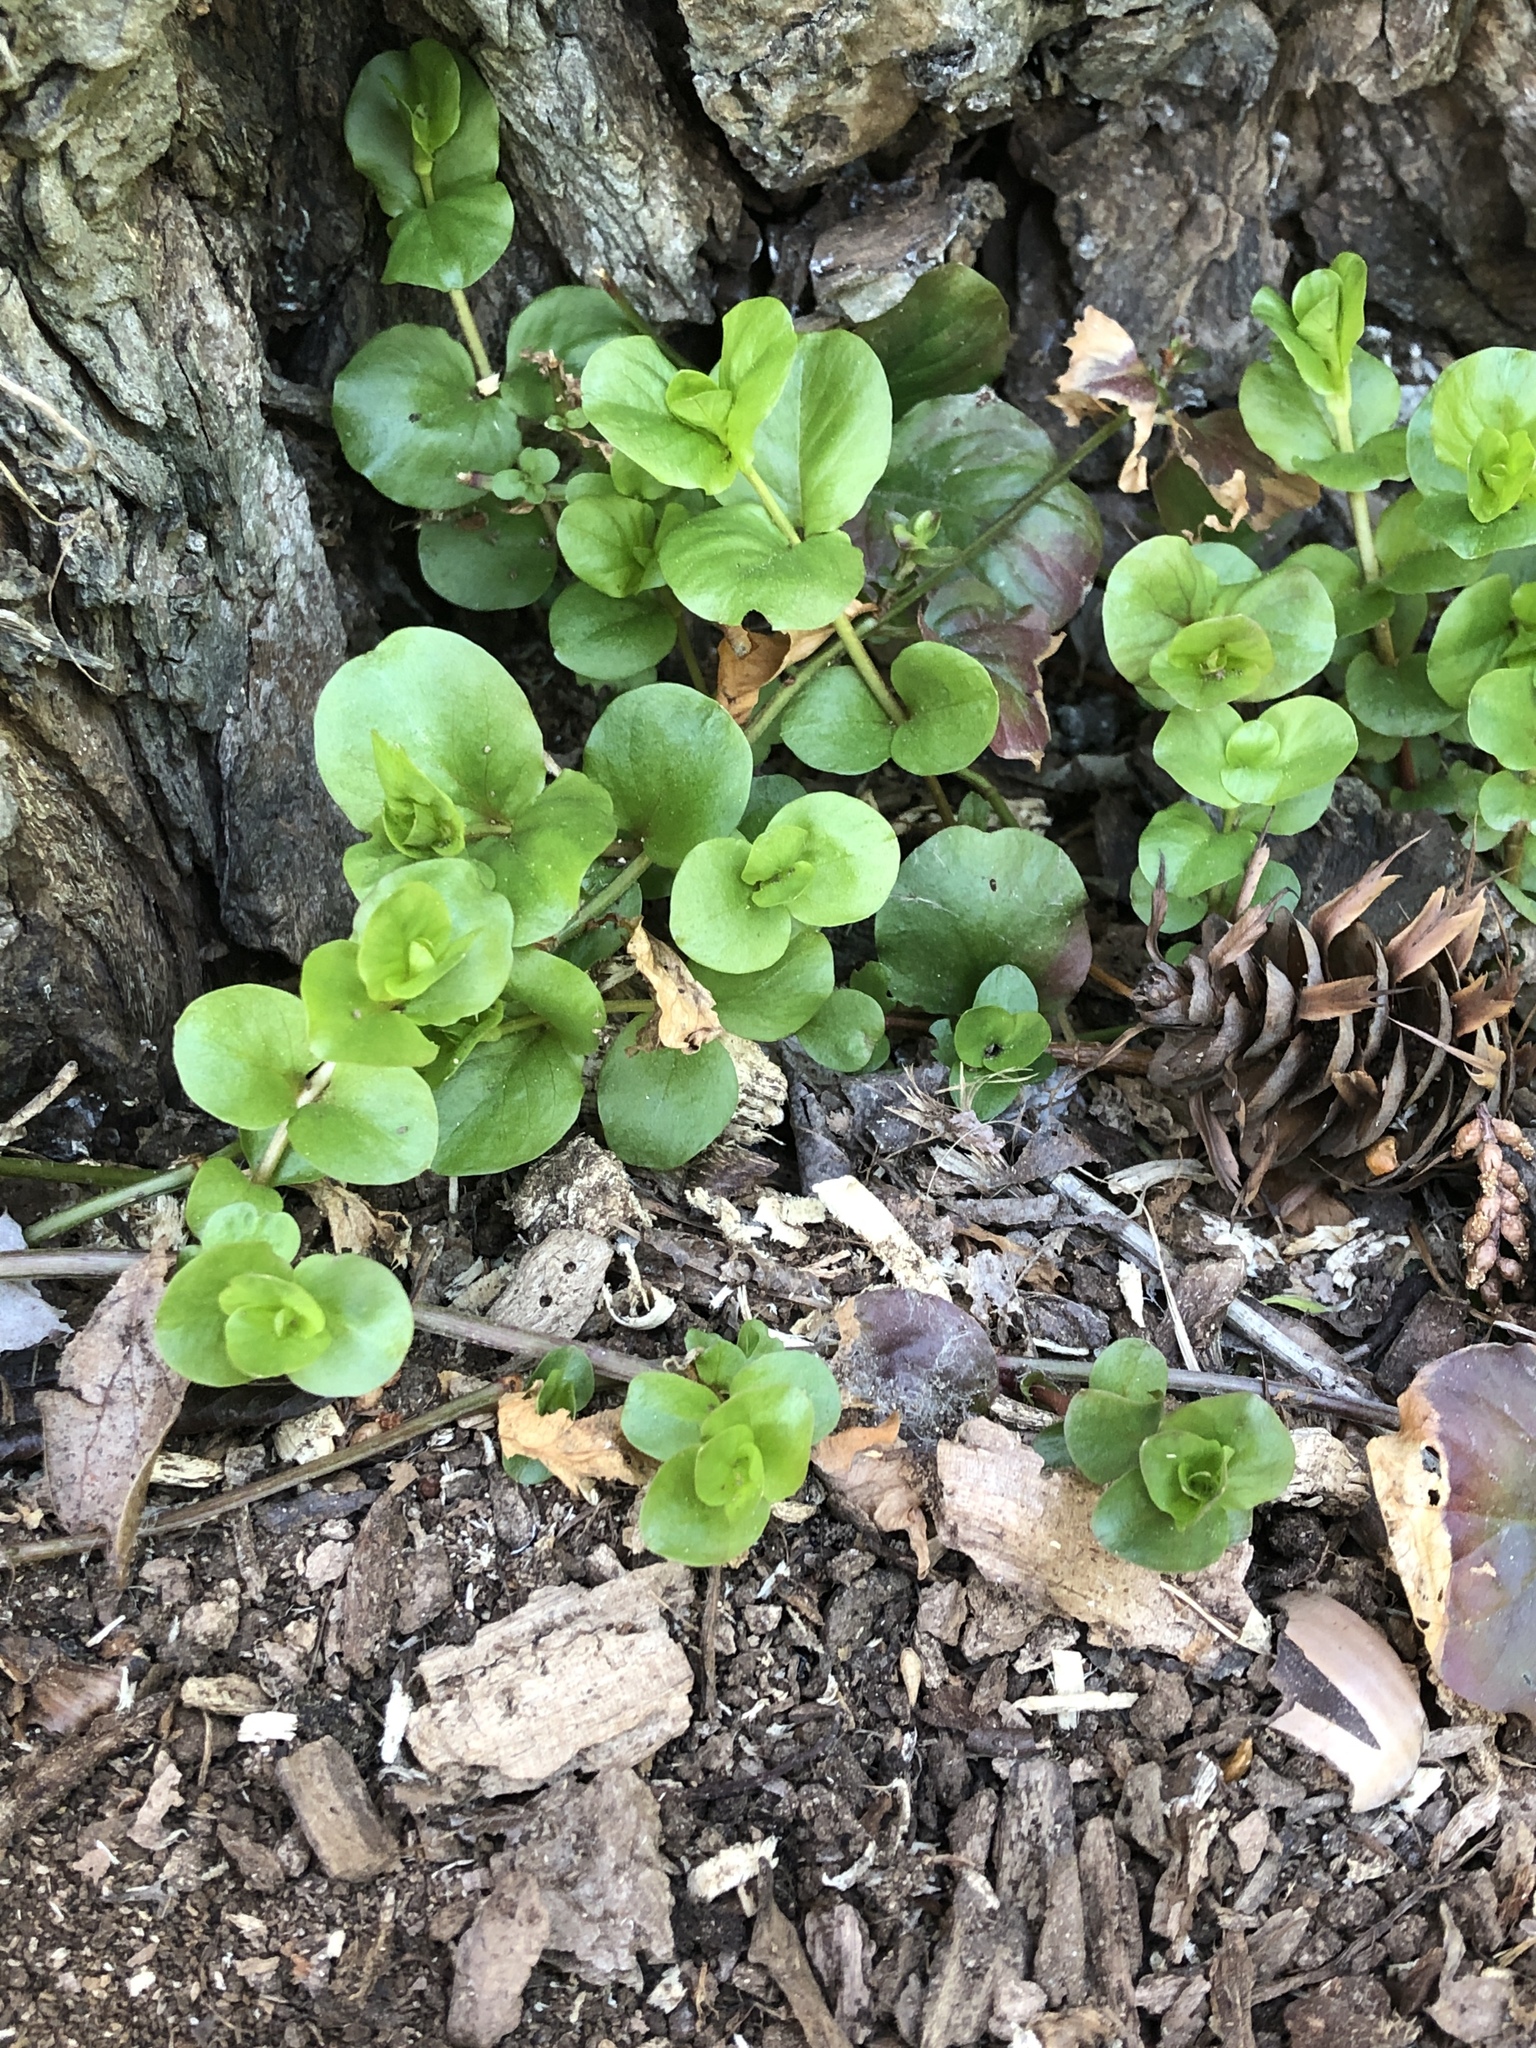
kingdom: Plantae
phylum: Tracheophyta
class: Magnoliopsida
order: Ericales
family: Primulaceae
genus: Lysimachia
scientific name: Lysimachia nummularia
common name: Moneywort
